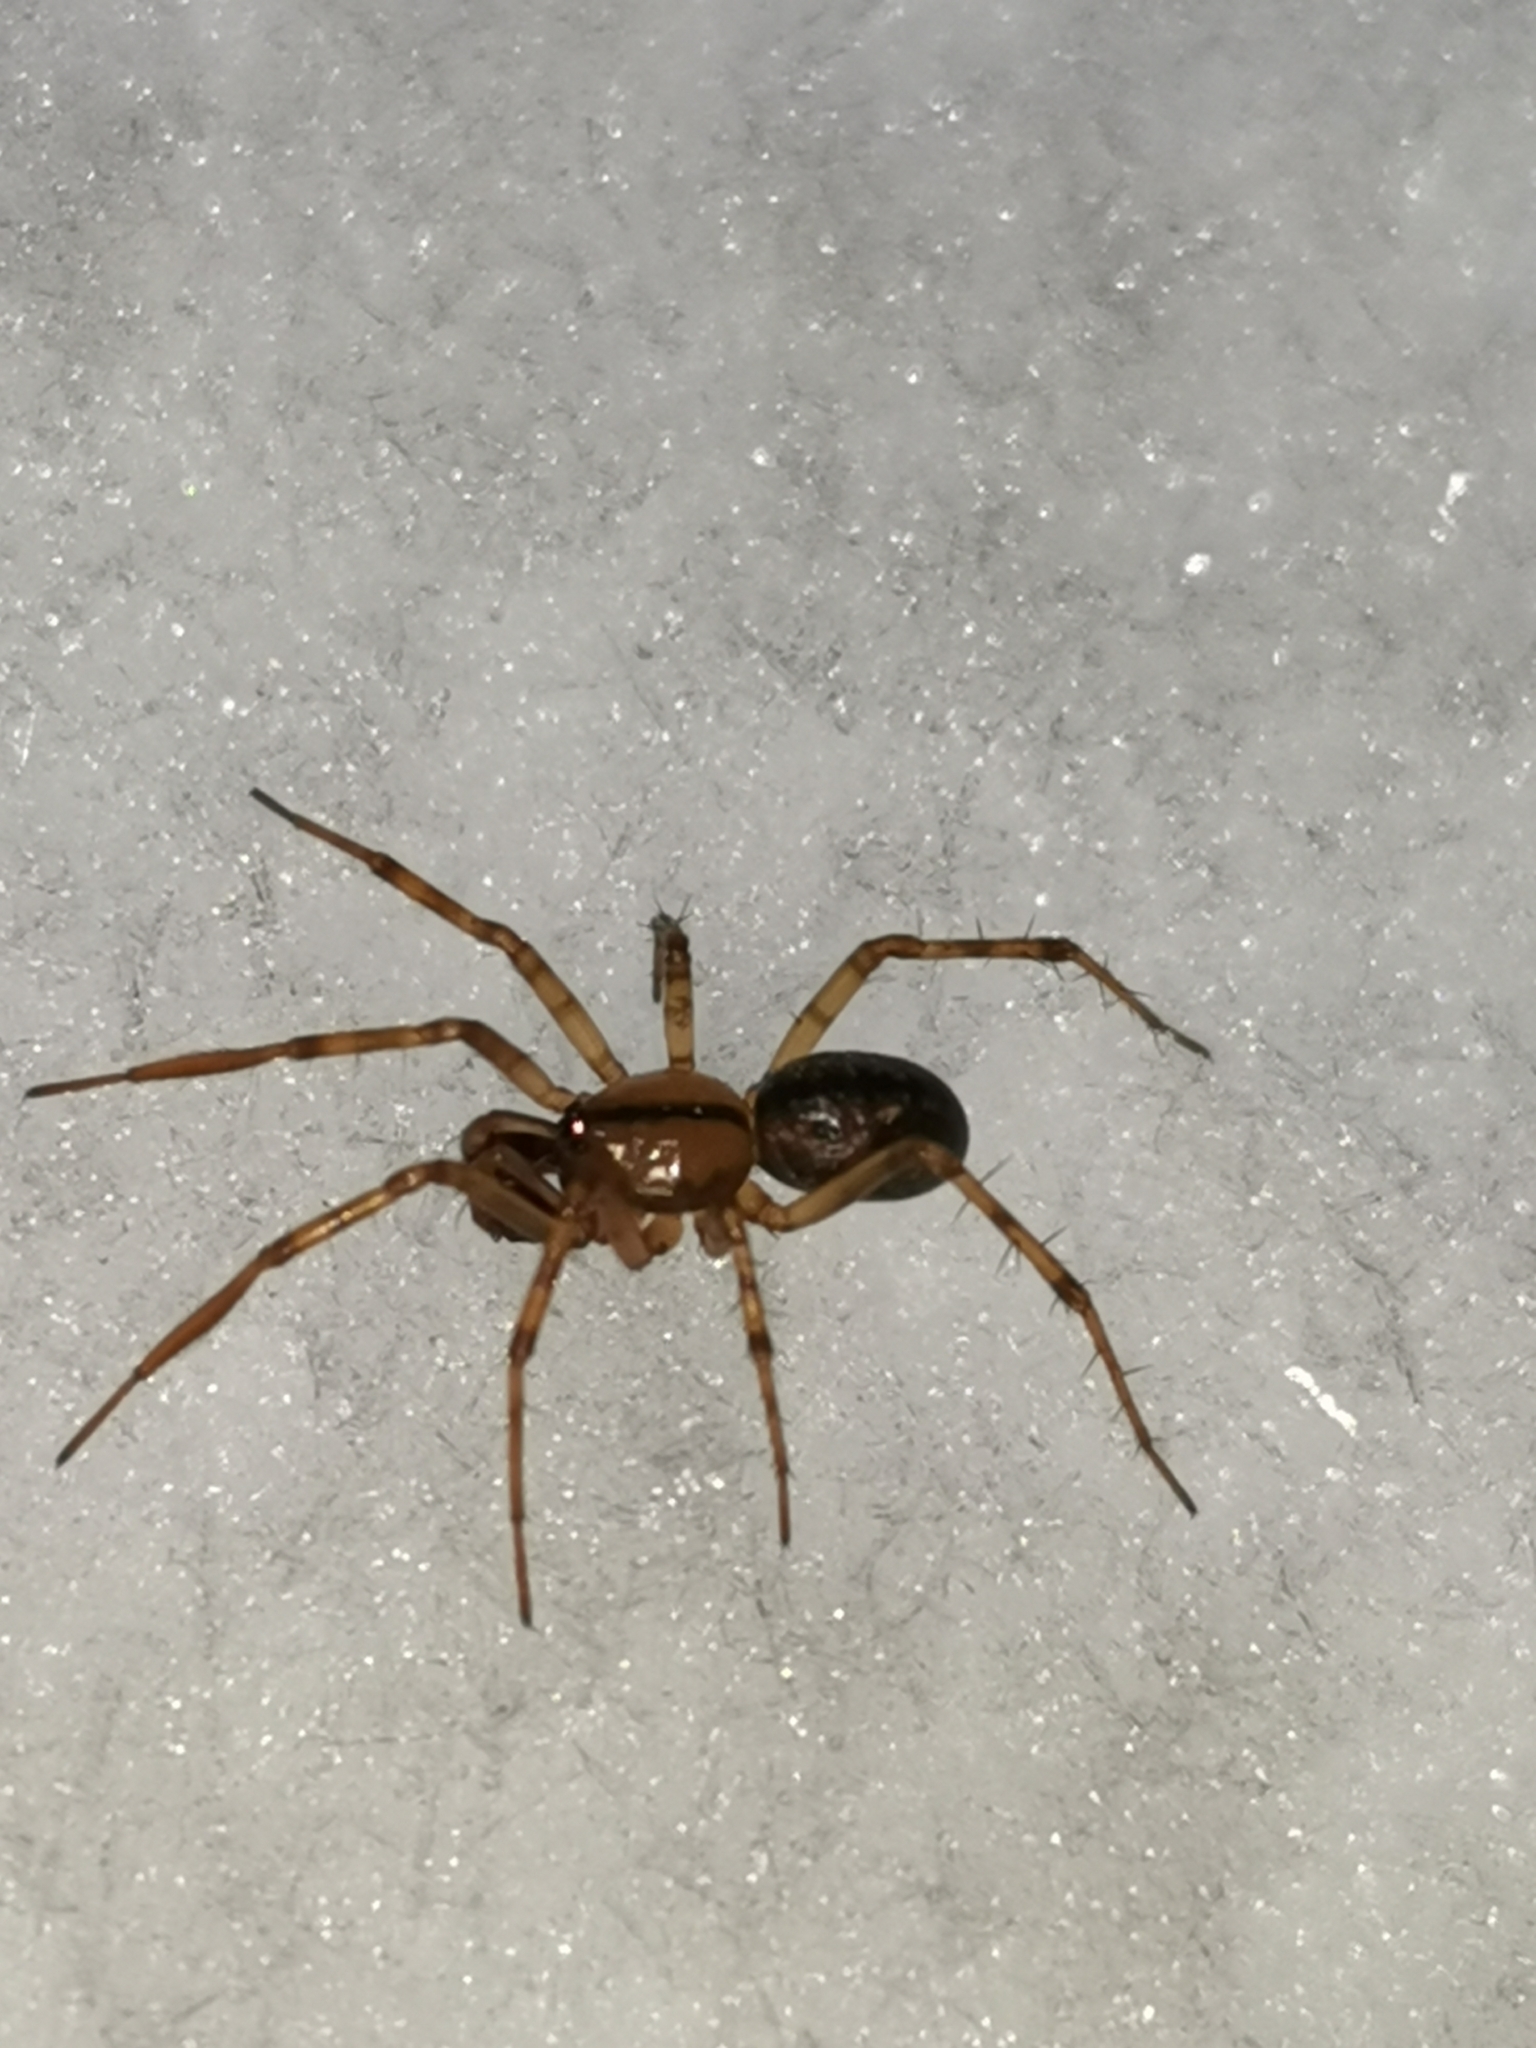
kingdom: Animalia
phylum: Arthropoda
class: Arachnida
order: Araneae
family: Linyphiidae
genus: Stemonyphantes
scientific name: Stemonyphantes lineatus
